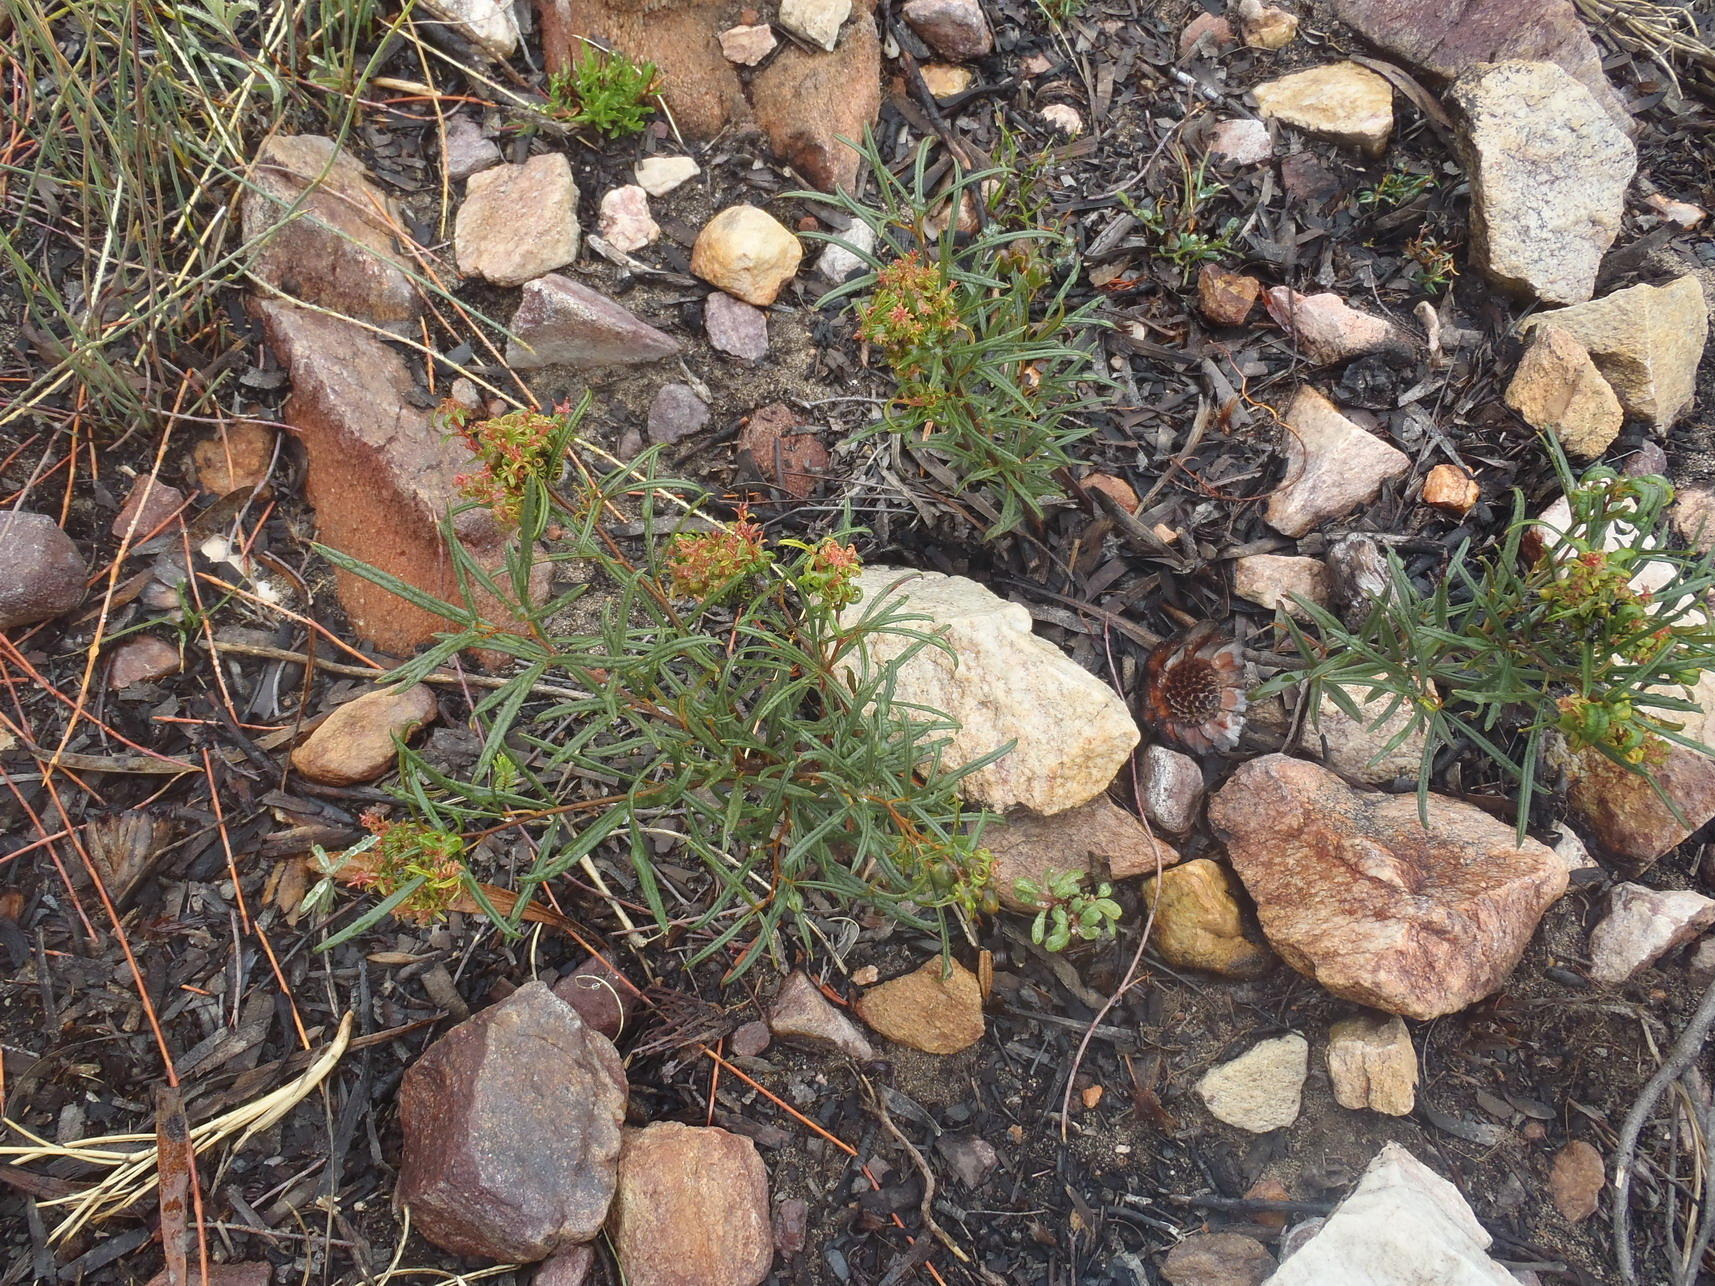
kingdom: Plantae
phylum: Tracheophyta
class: Magnoliopsida
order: Sapindales
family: Anacardiaceae
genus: Searsia
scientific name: Searsia rosmarinifolia
